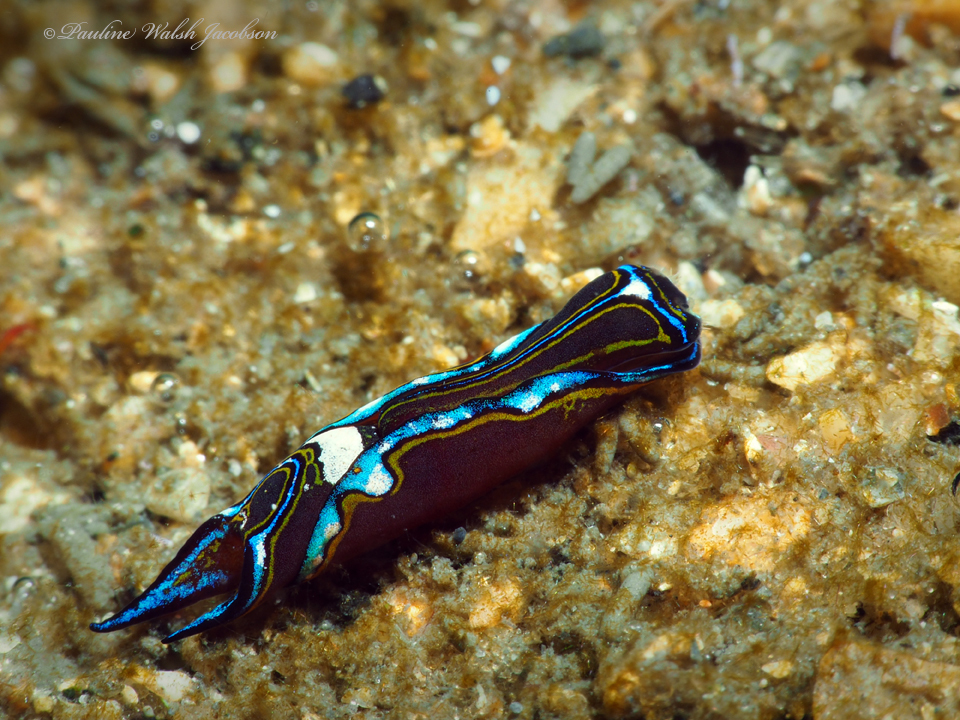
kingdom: Animalia
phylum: Mollusca
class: Gastropoda
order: Cephalaspidea
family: Aglajidae
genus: Chelidonura
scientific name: Chelidonura hirundinina
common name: Leech headshield slug
